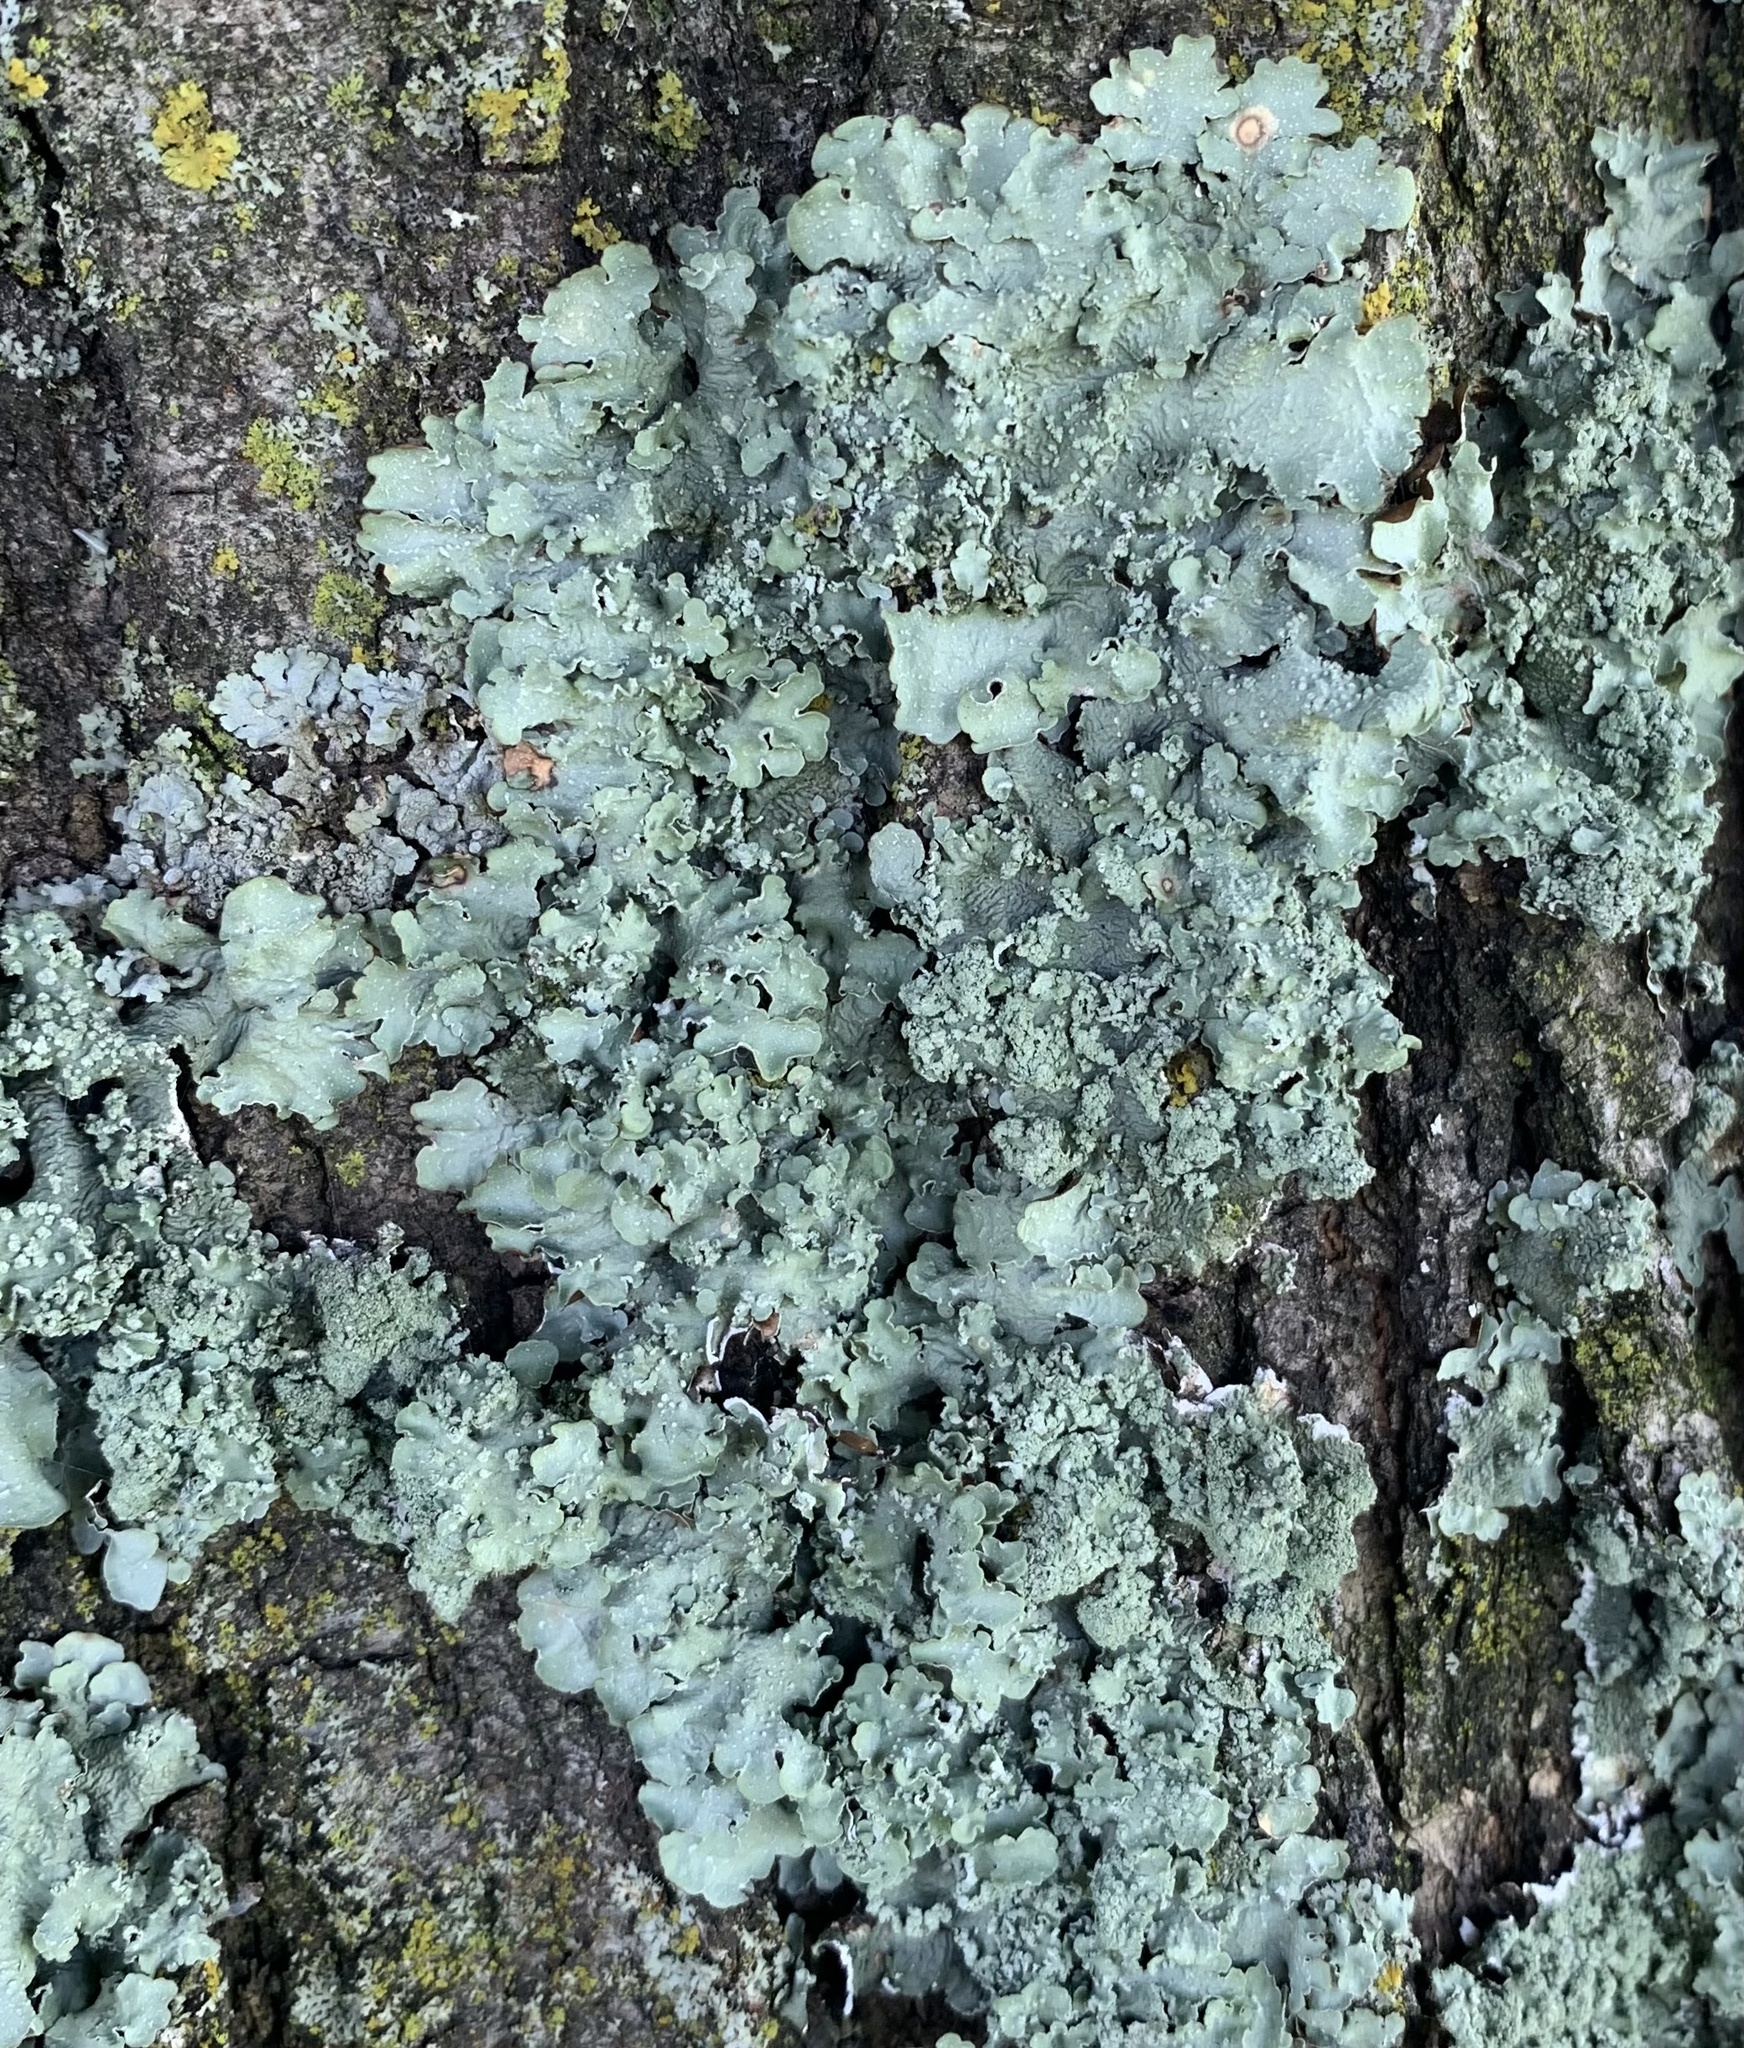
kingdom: Fungi
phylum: Ascomycota
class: Lecanoromycetes
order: Lecanorales
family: Parmeliaceae
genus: Flavopunctelia
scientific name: Flavopunctelia flaventior
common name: Speckled greenshield
